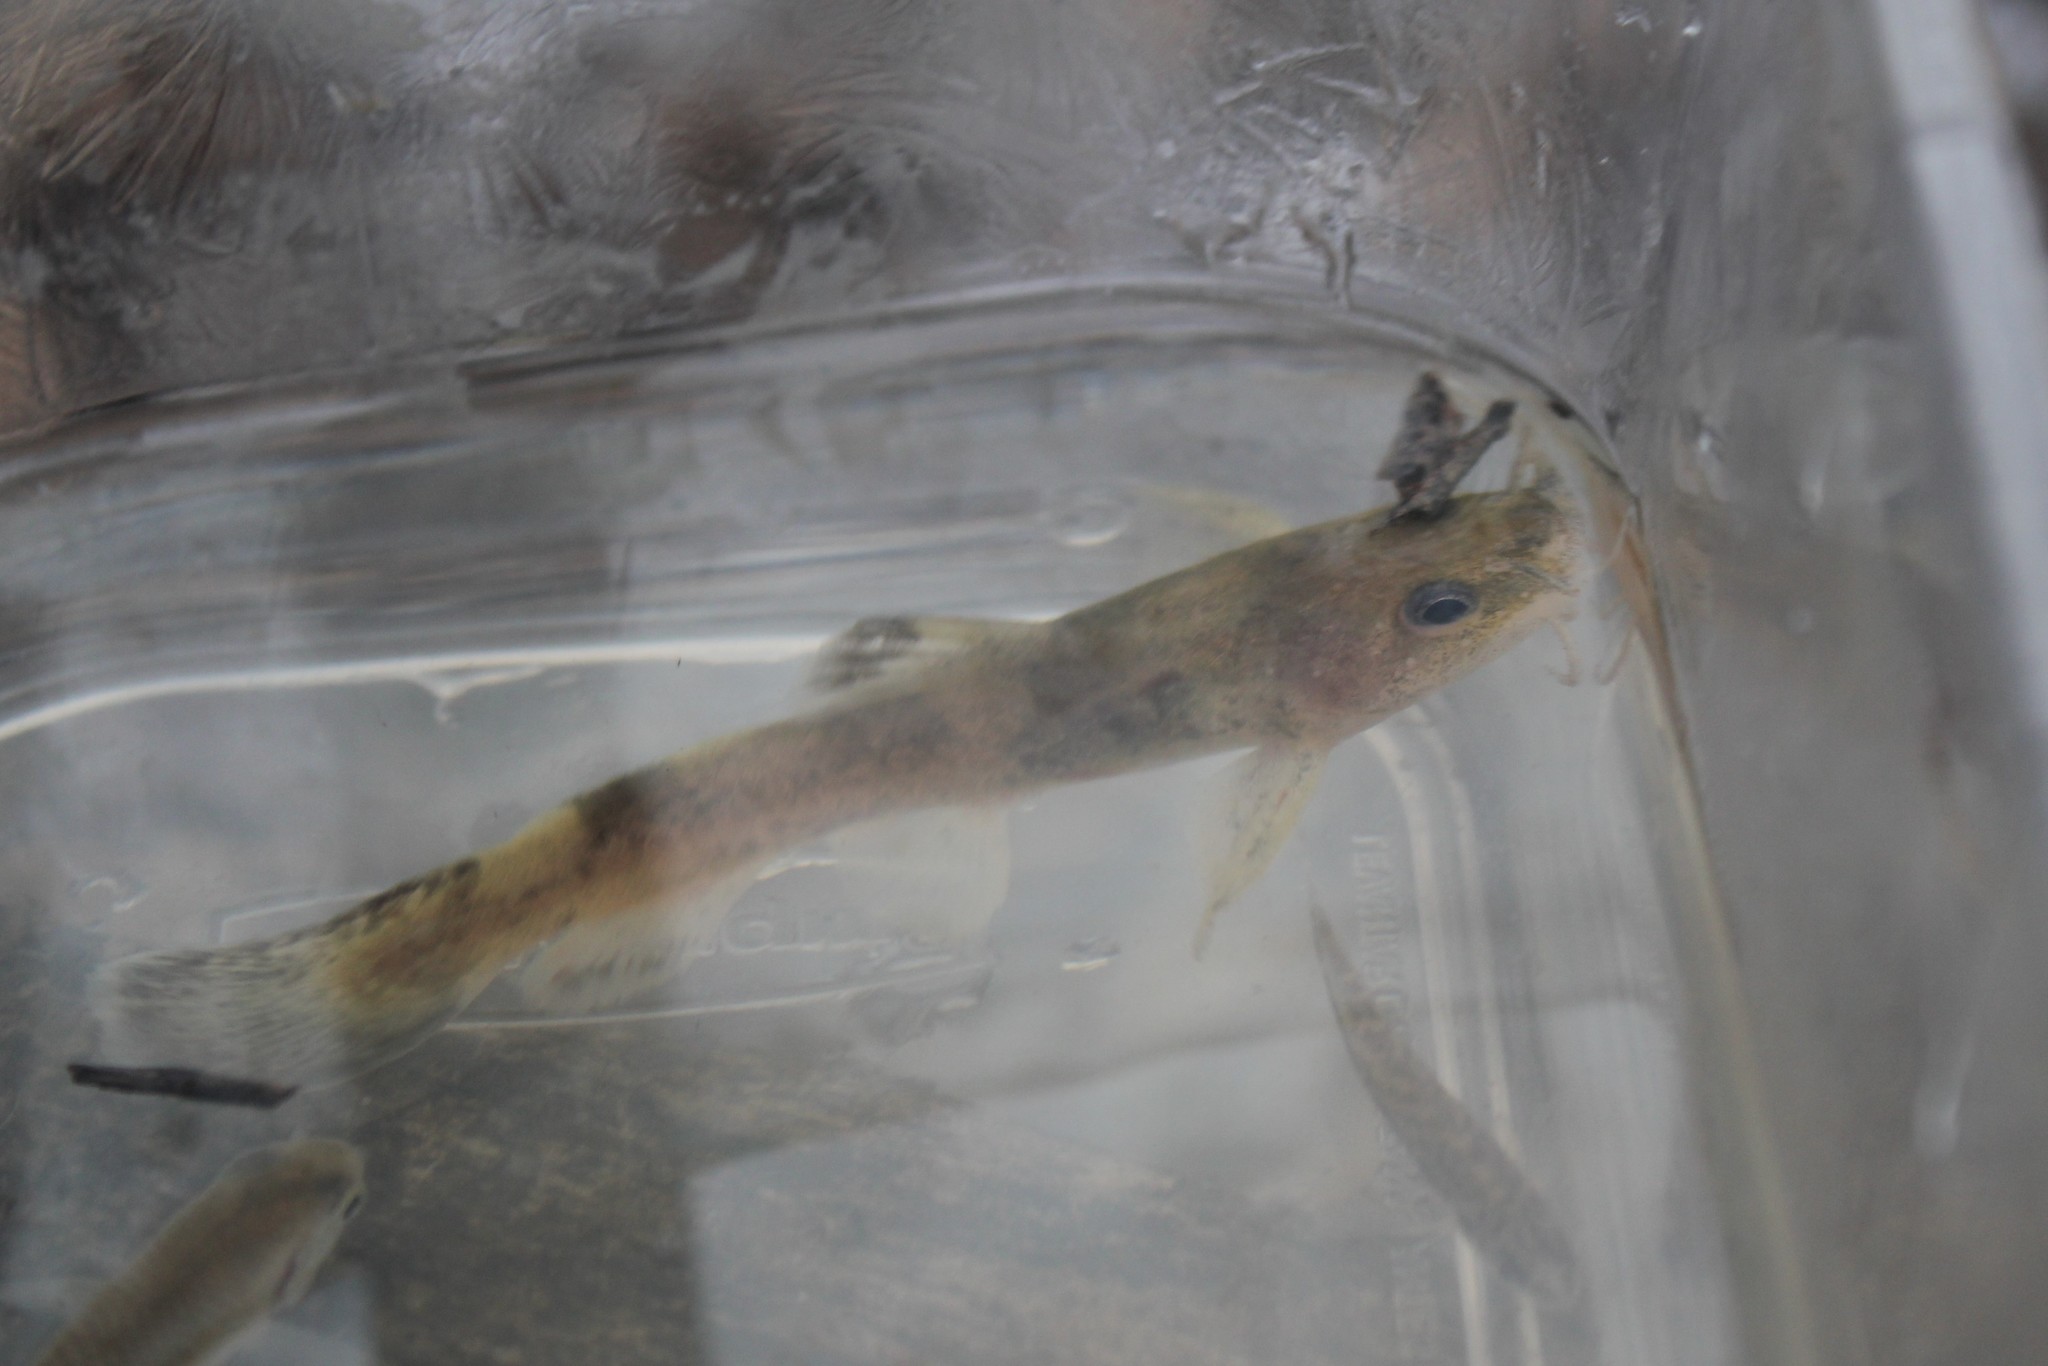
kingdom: Animalia
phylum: Chordata
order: Siluriformes
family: Ictaluridae
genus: Noturus
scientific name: Noturus miurus
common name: Brindled madtom
